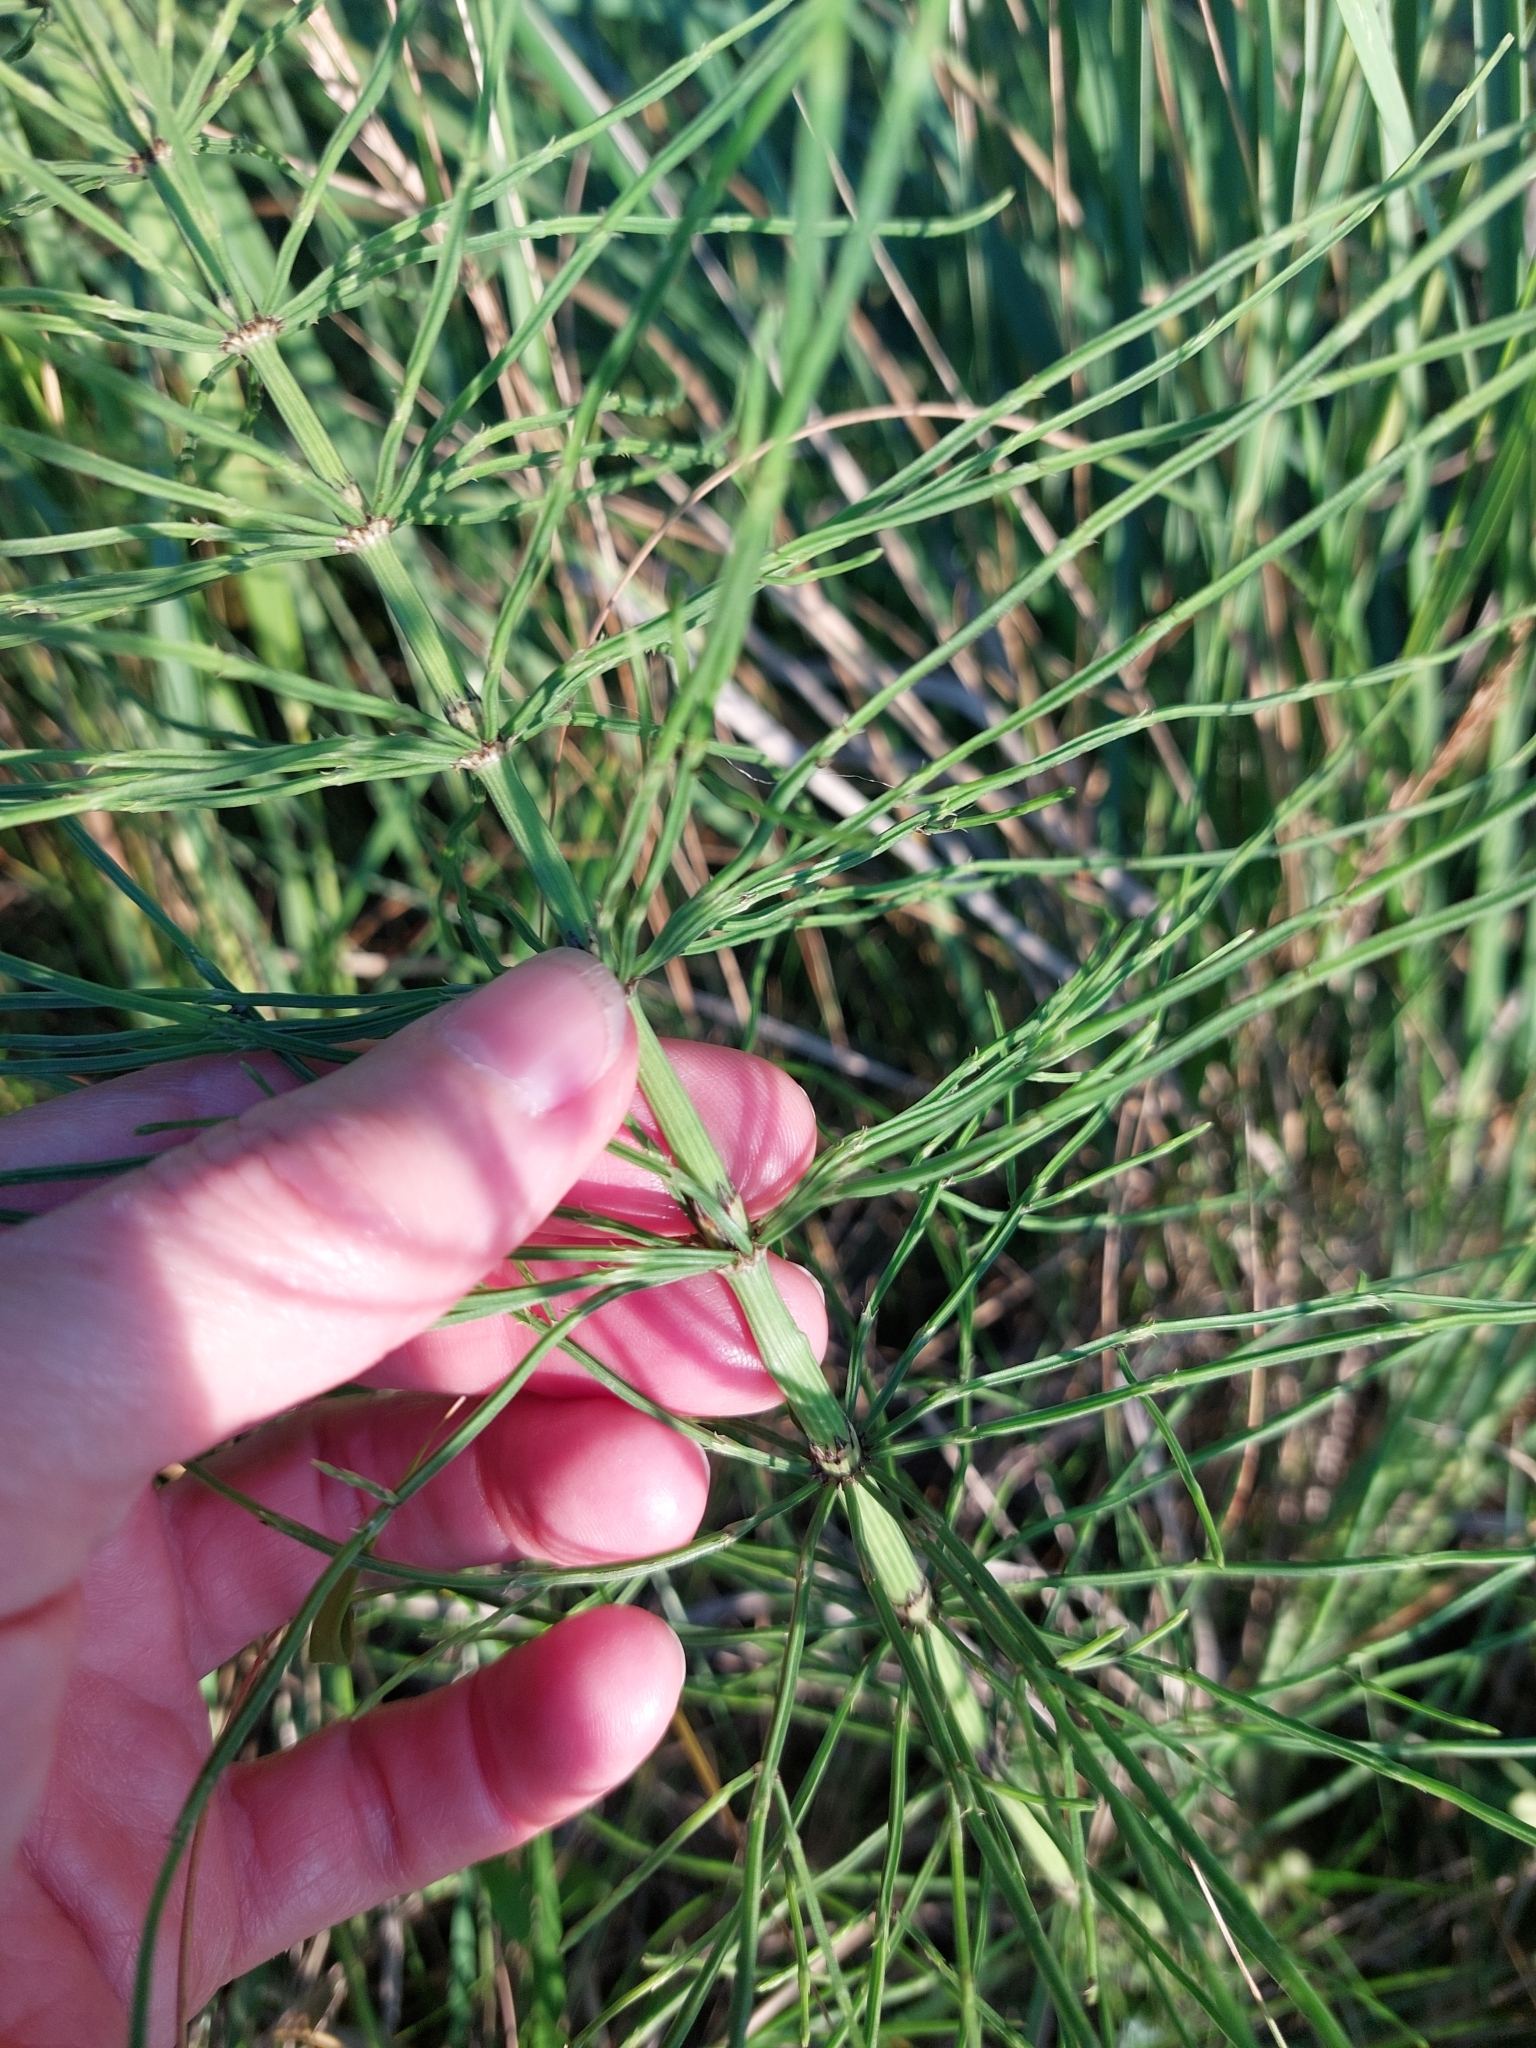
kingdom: Plantae
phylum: Tracheophyta
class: Polypodiopsida
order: Equisetales
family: Equisetaceae
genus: Equisetum
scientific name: Equisetum arvense
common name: Field horsetail
